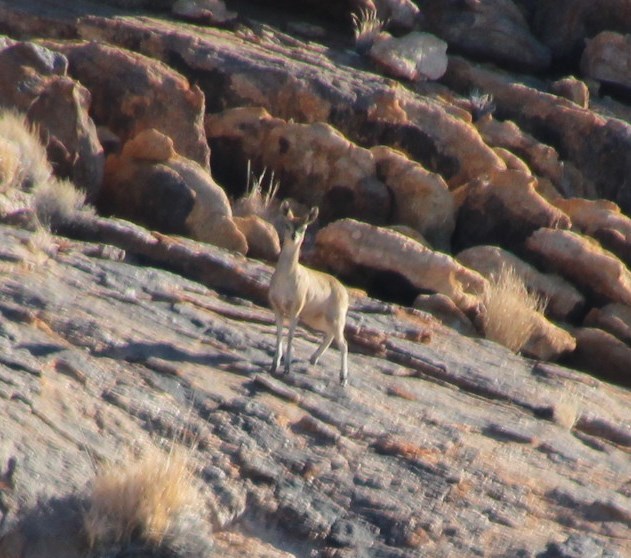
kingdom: Animalia
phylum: Chordata
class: Mammalia
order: Artiodactyla
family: Bovidae
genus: Oreotragus
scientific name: Oreotragus oreotragus
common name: Klipspringer
